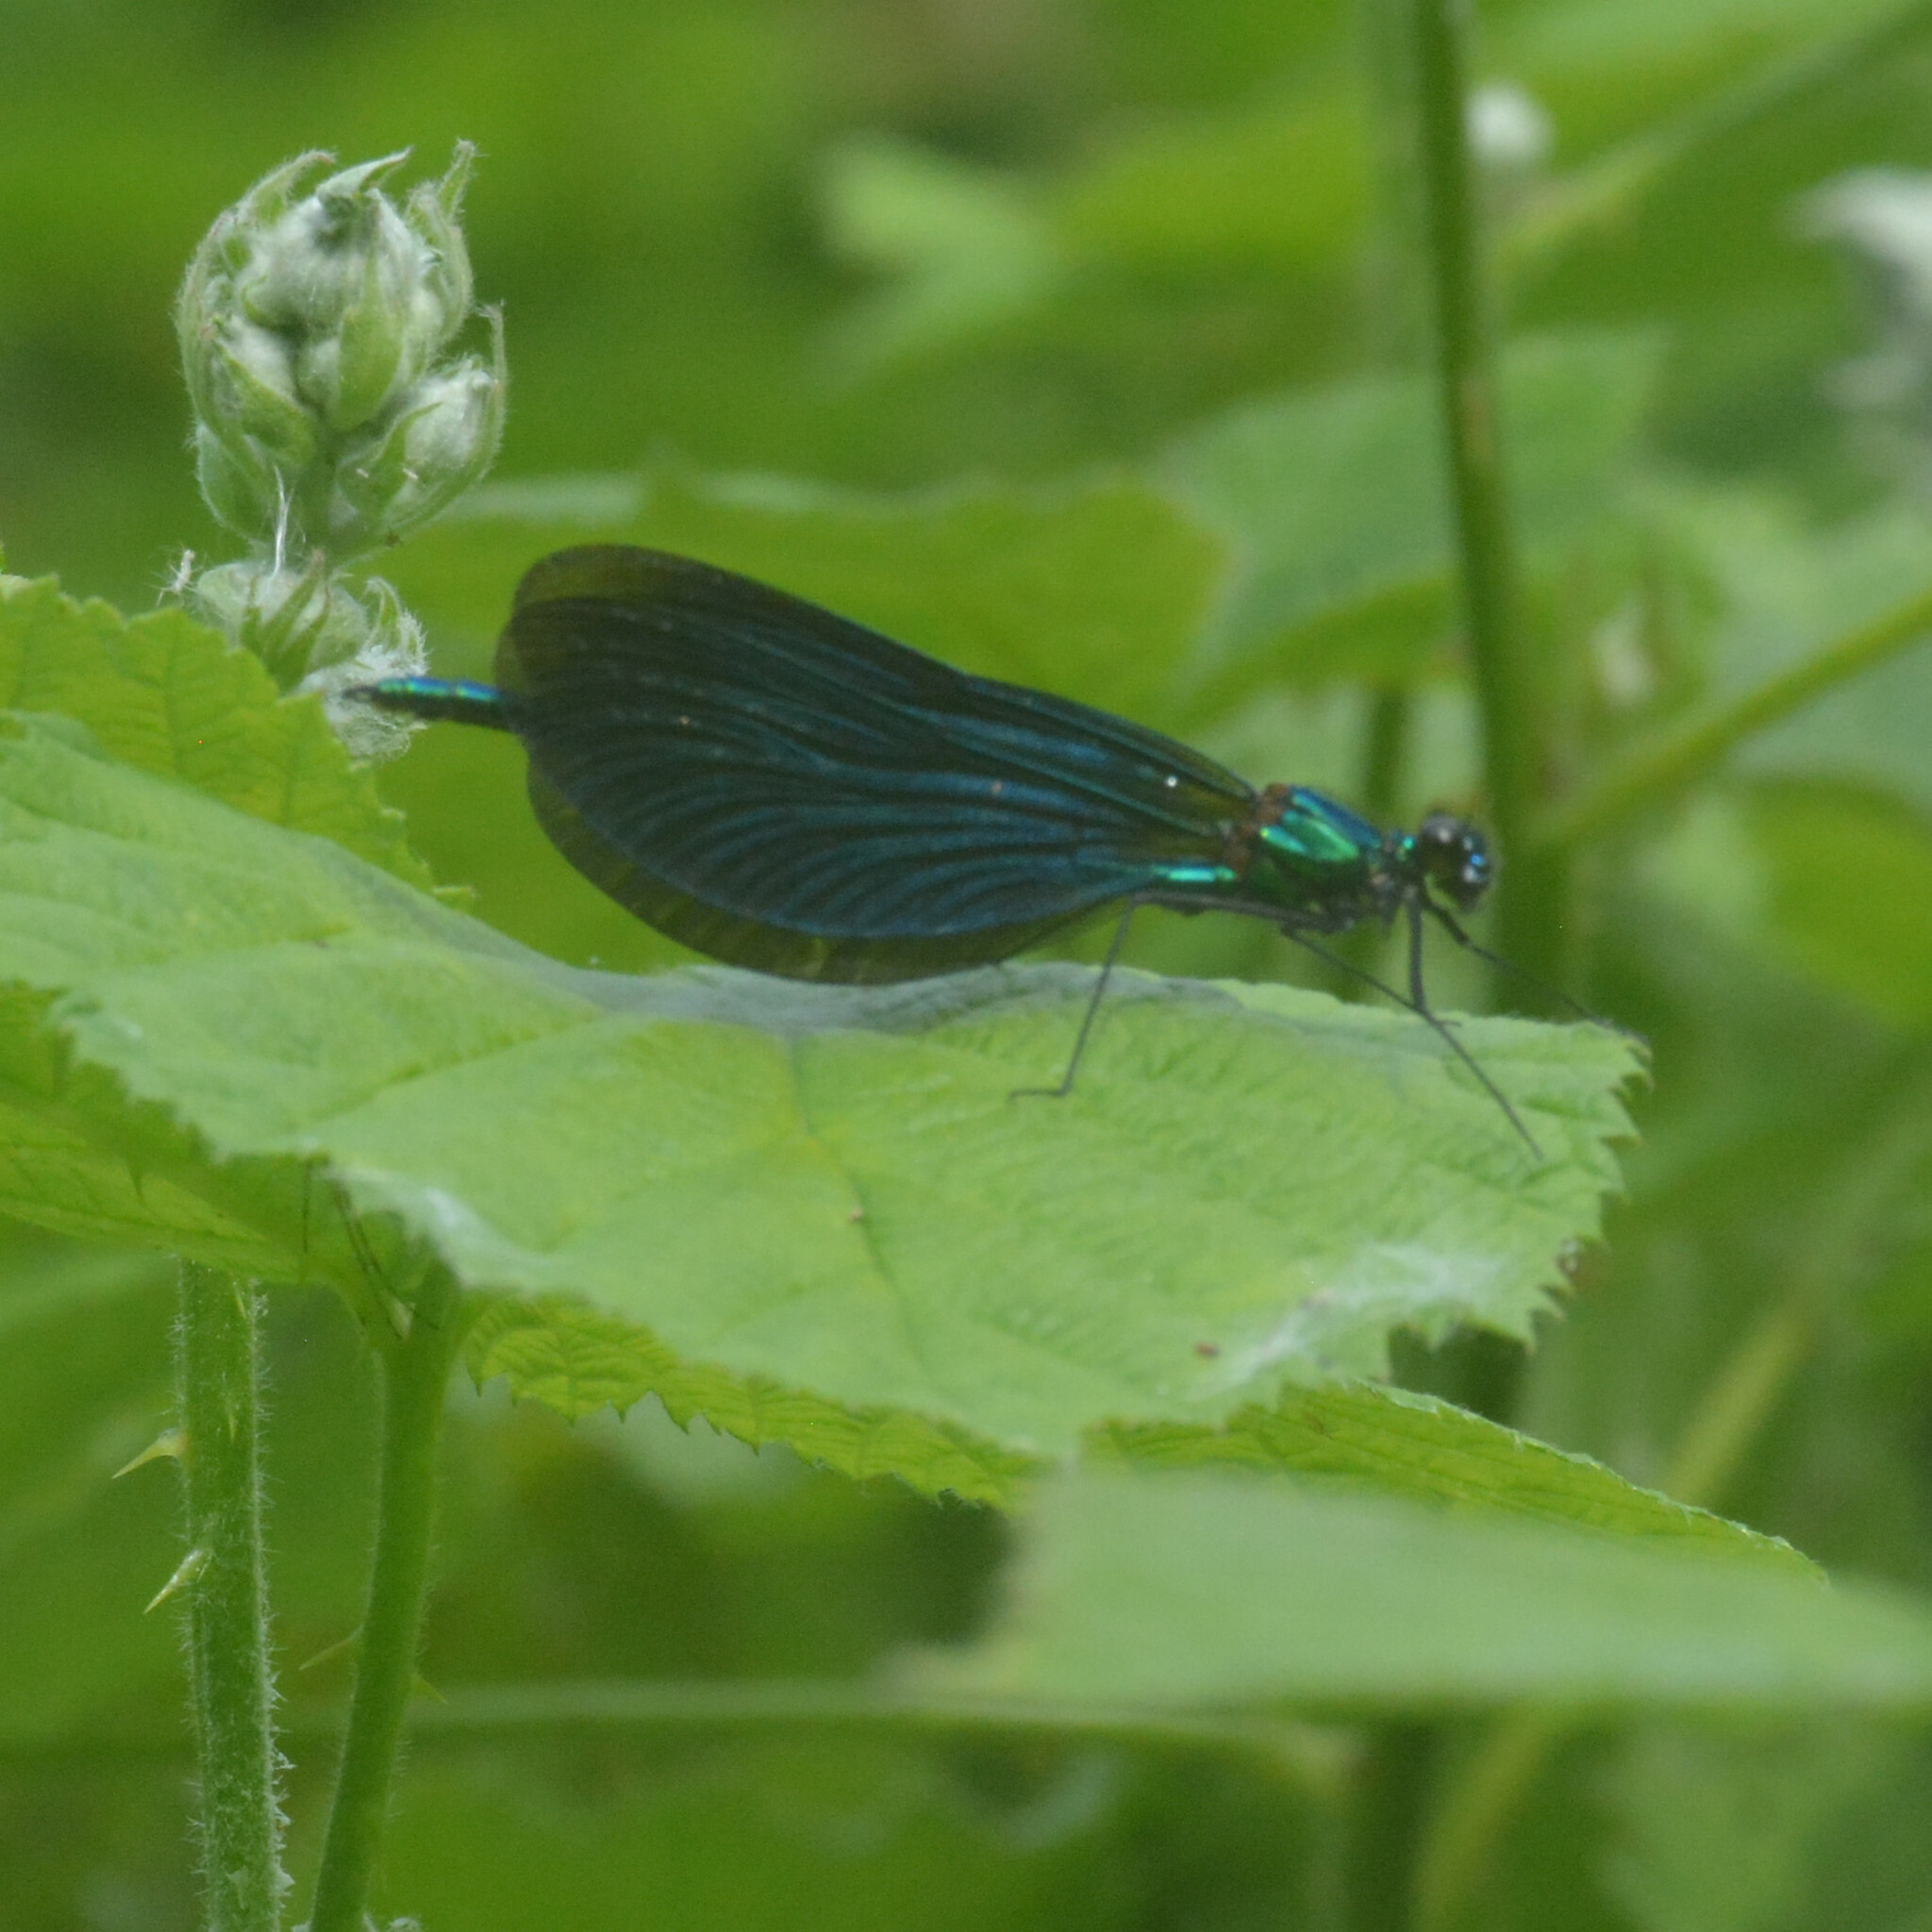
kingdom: Animalia
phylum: Arthropoda
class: Insecta
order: Odonata
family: Calopterygidae
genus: Calopteryx
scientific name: Calopteryx virgo
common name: Beautiful demoiselle
